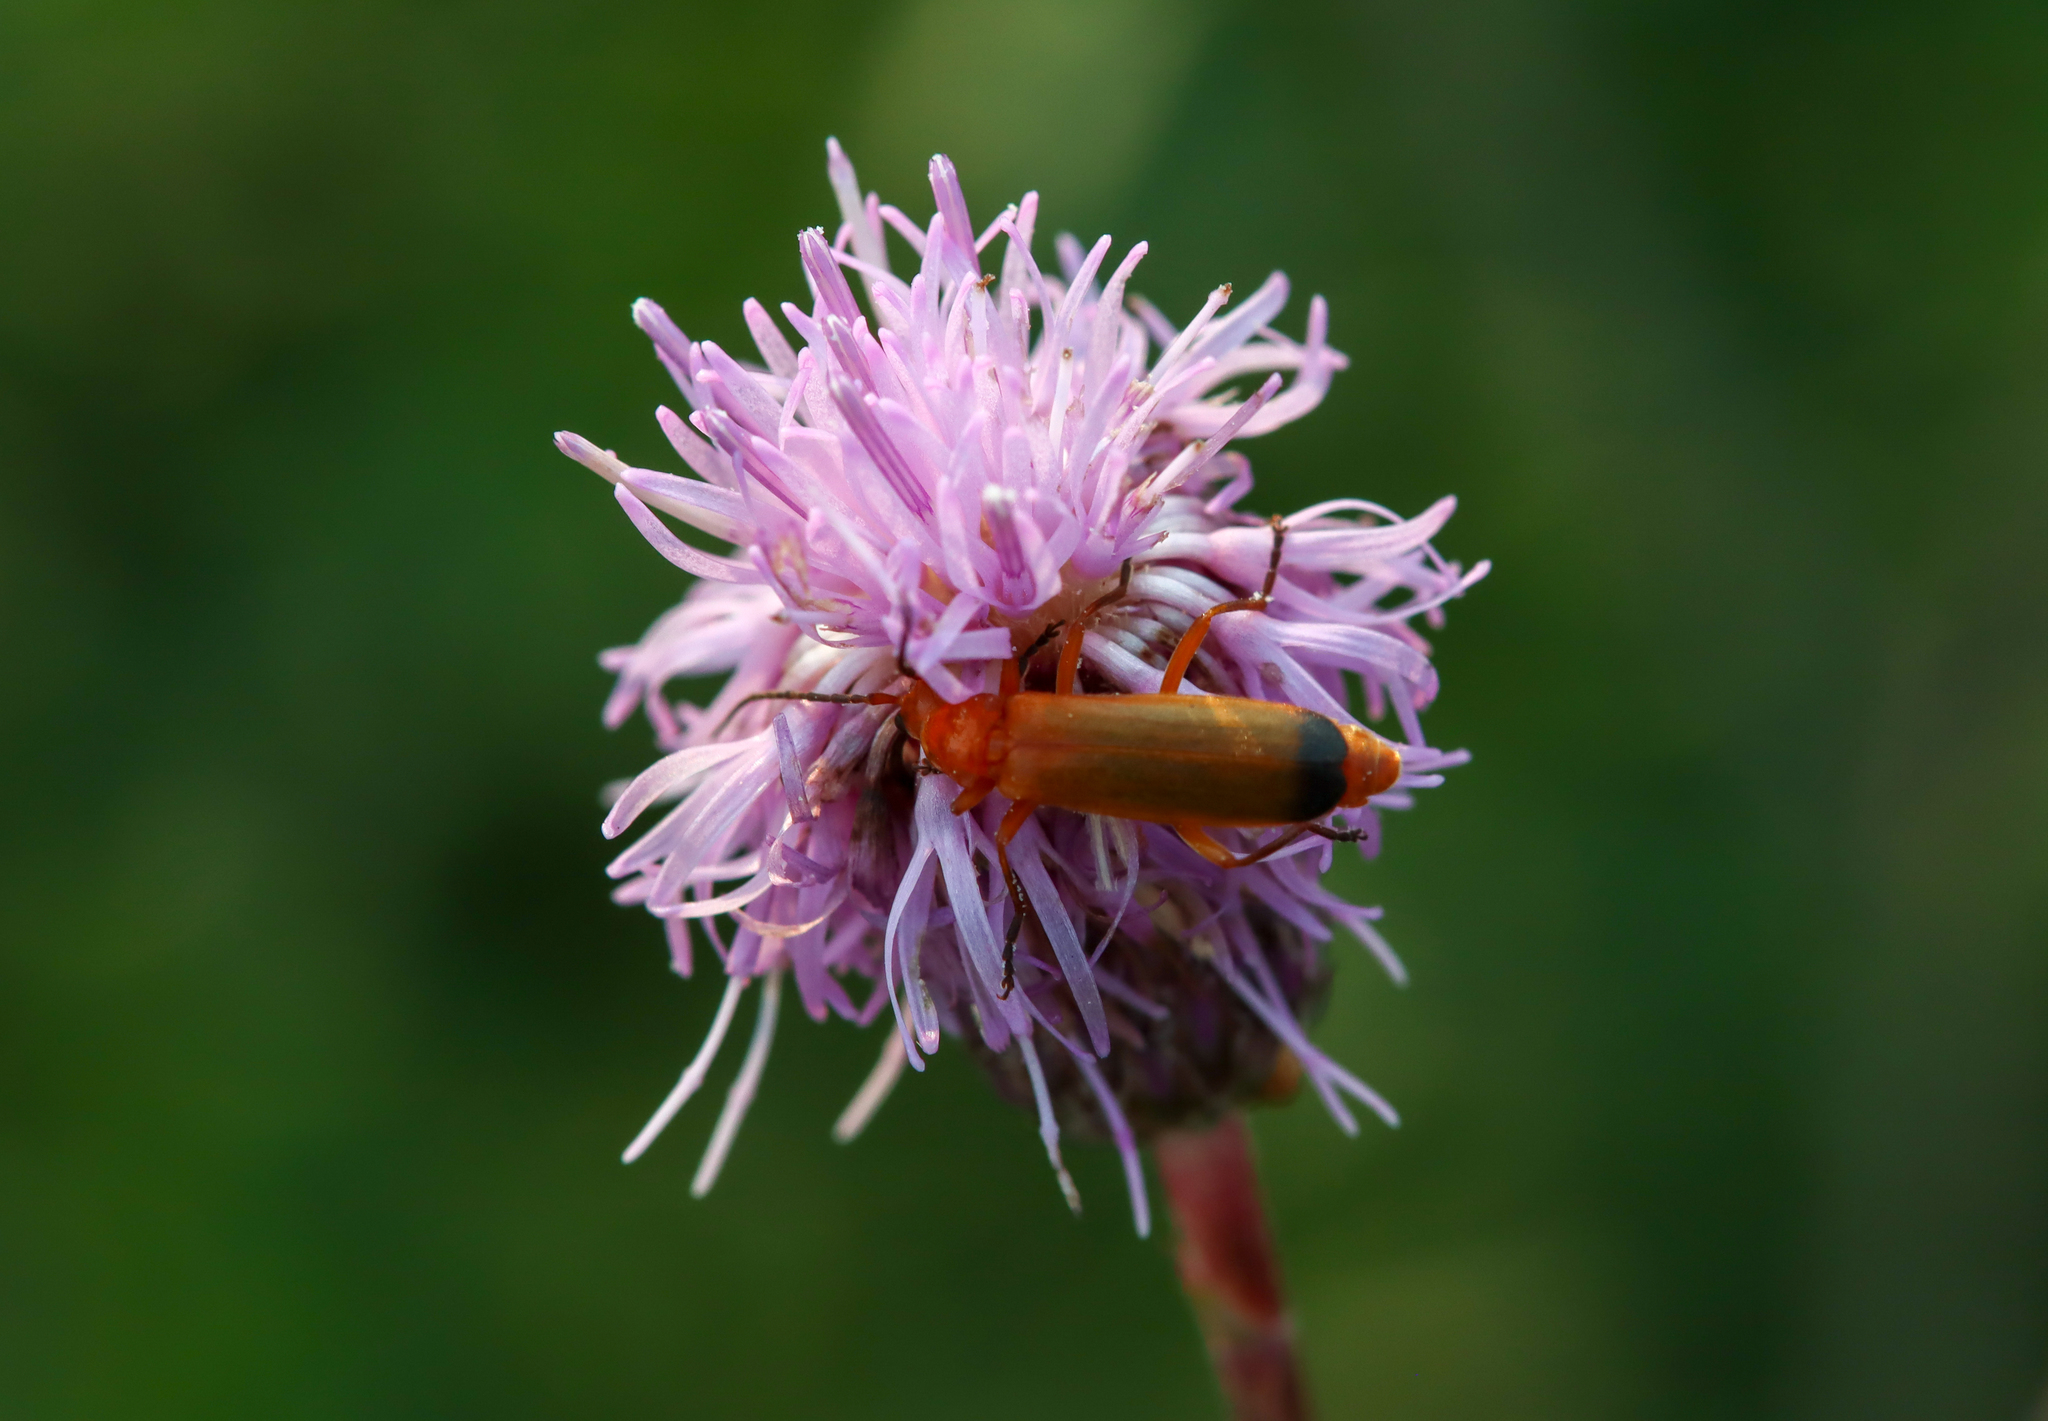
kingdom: Animalia
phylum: Arthropoda
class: Insecta
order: Coleoptera
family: Cantharidae
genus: Rhagonycha
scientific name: Rhagonycha fulva
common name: Common red soldier beetle
